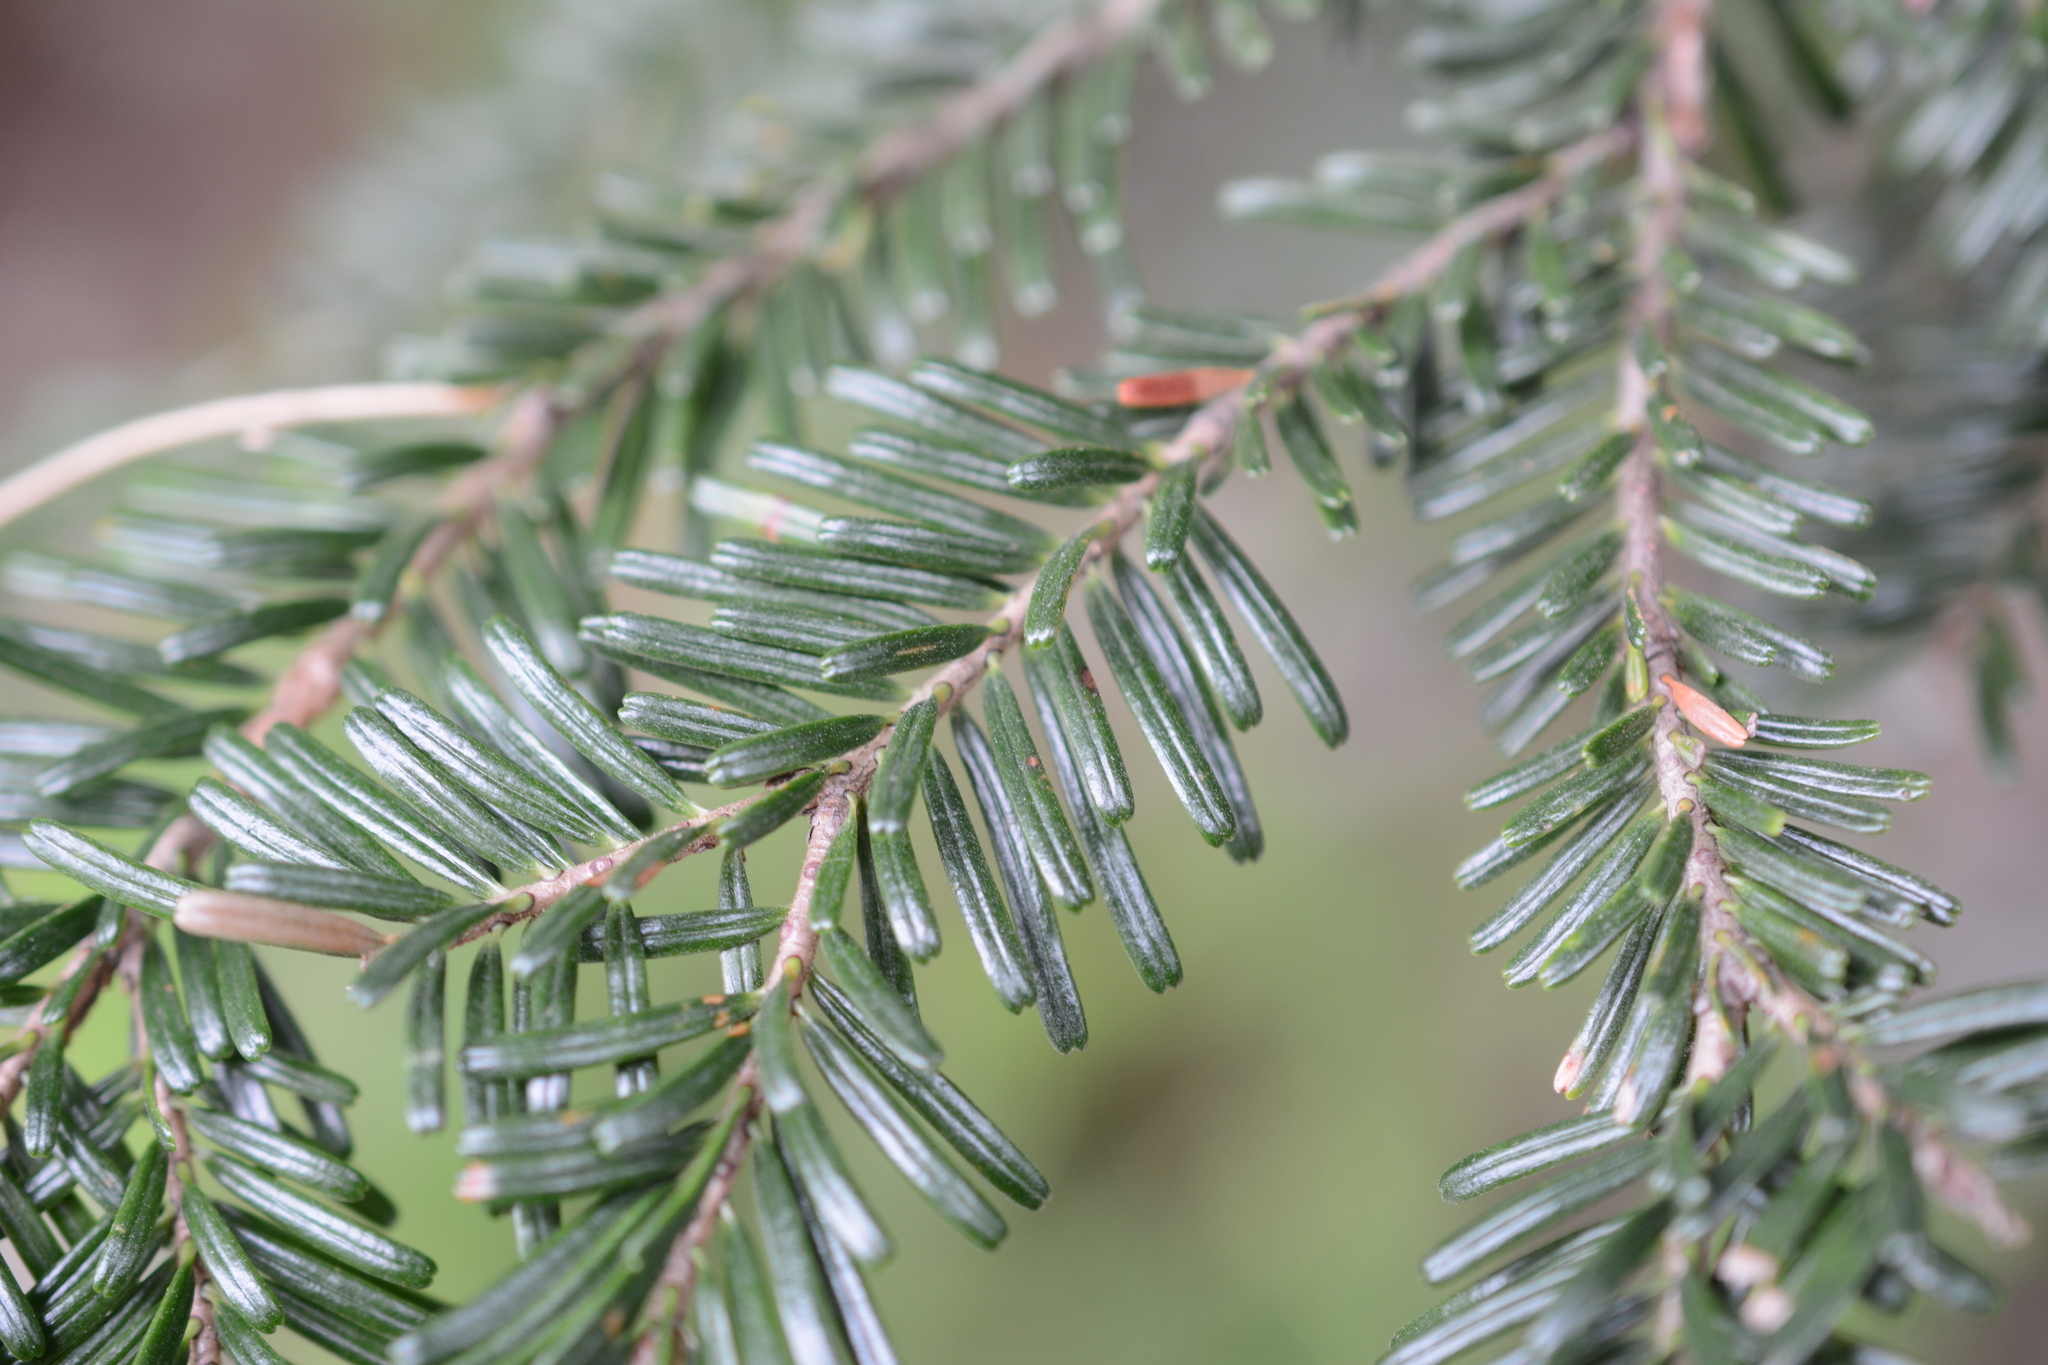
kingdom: Plantae
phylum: Tracheophyta
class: Pinopsida
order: Pinales
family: Pinaceae
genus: Abies
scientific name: Abies amabilis
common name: Pacific silver fir
